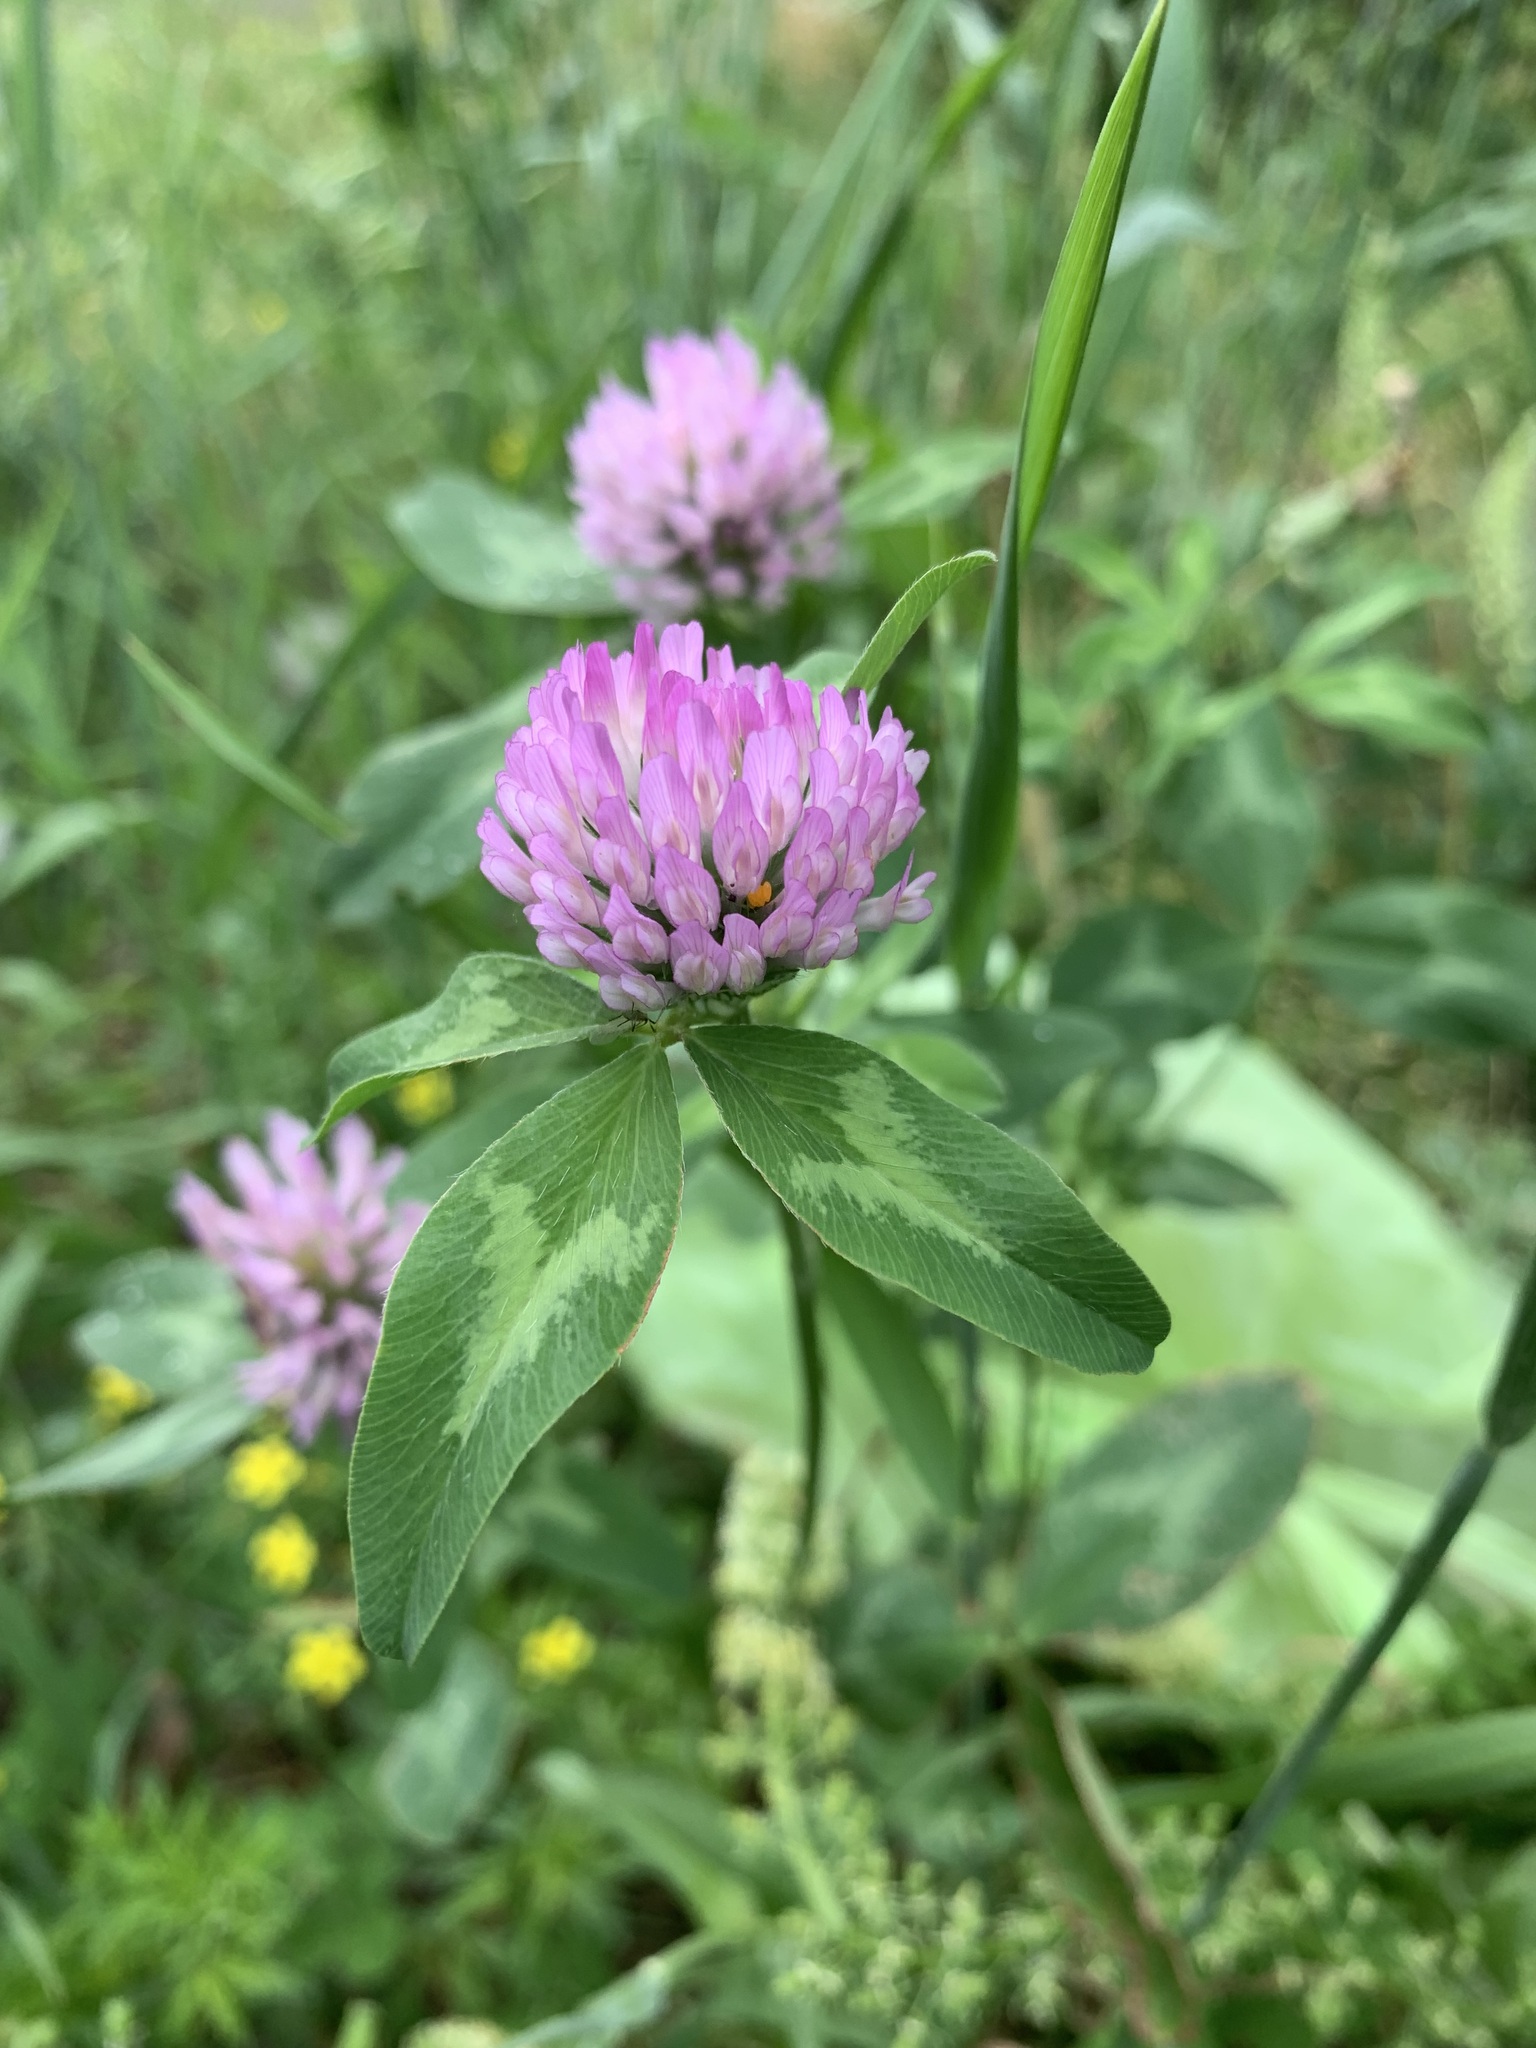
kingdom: Plantae
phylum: Tracheophyta
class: Magnoliopsida
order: Fabales
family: Fabaceae
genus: Trifolium
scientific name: Trifolium pratense
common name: Red clover
